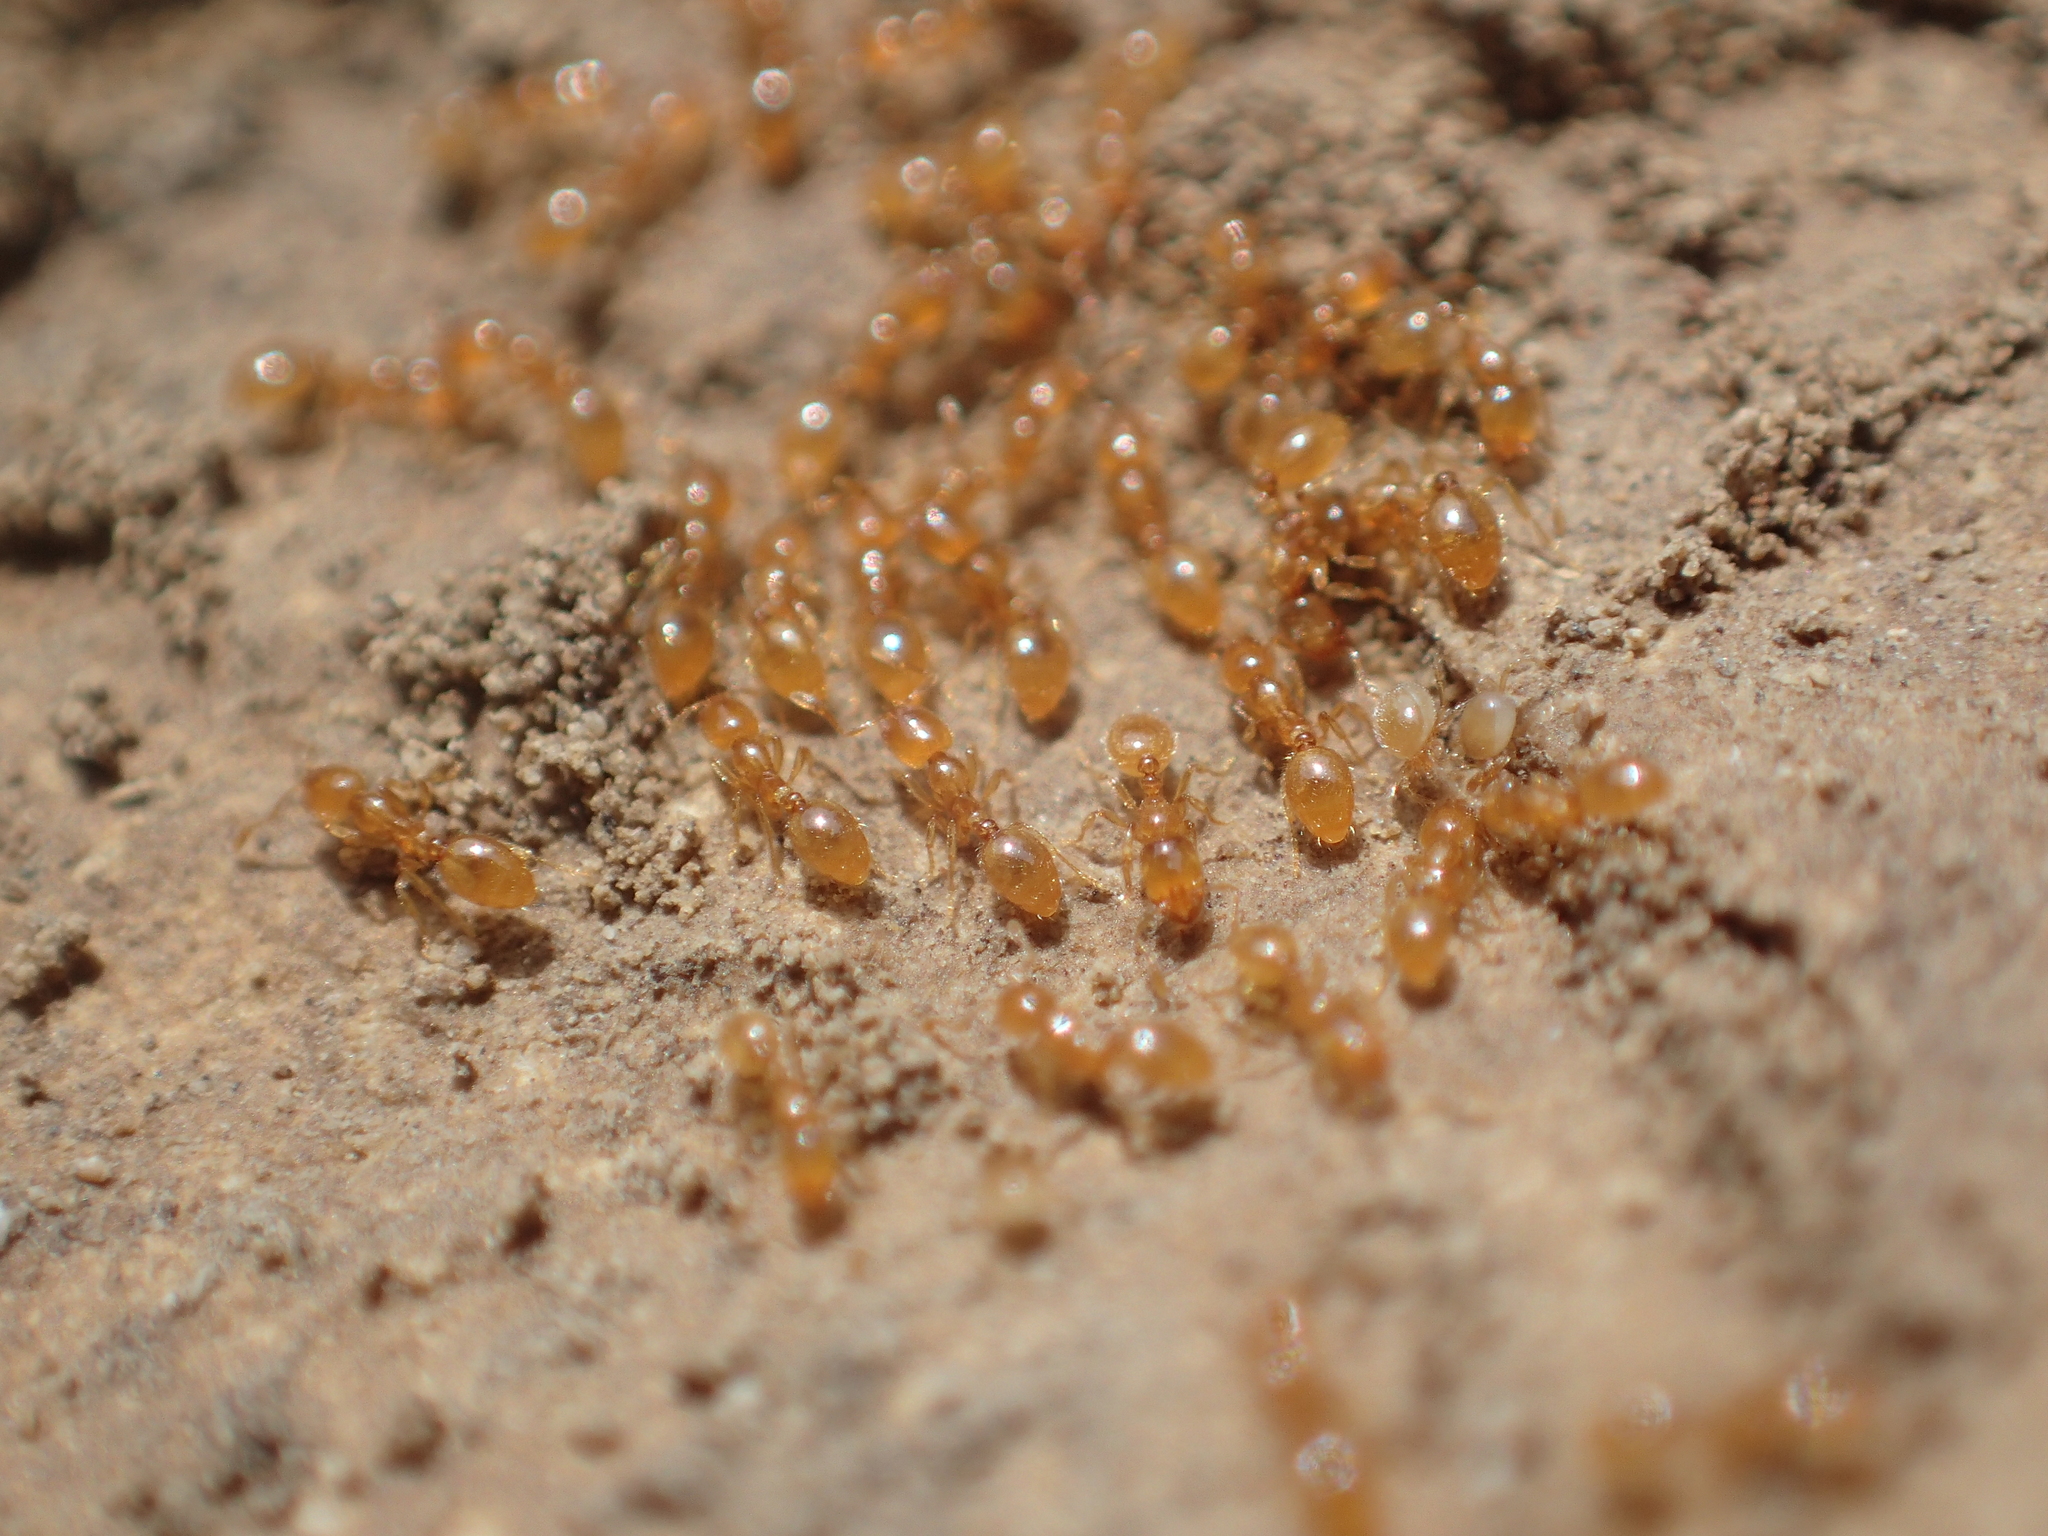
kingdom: Animalia
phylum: Arthropoda
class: Insecta
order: Hymenoptera
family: Formicidae
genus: Solenopsis
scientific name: Solenopsis fugax
